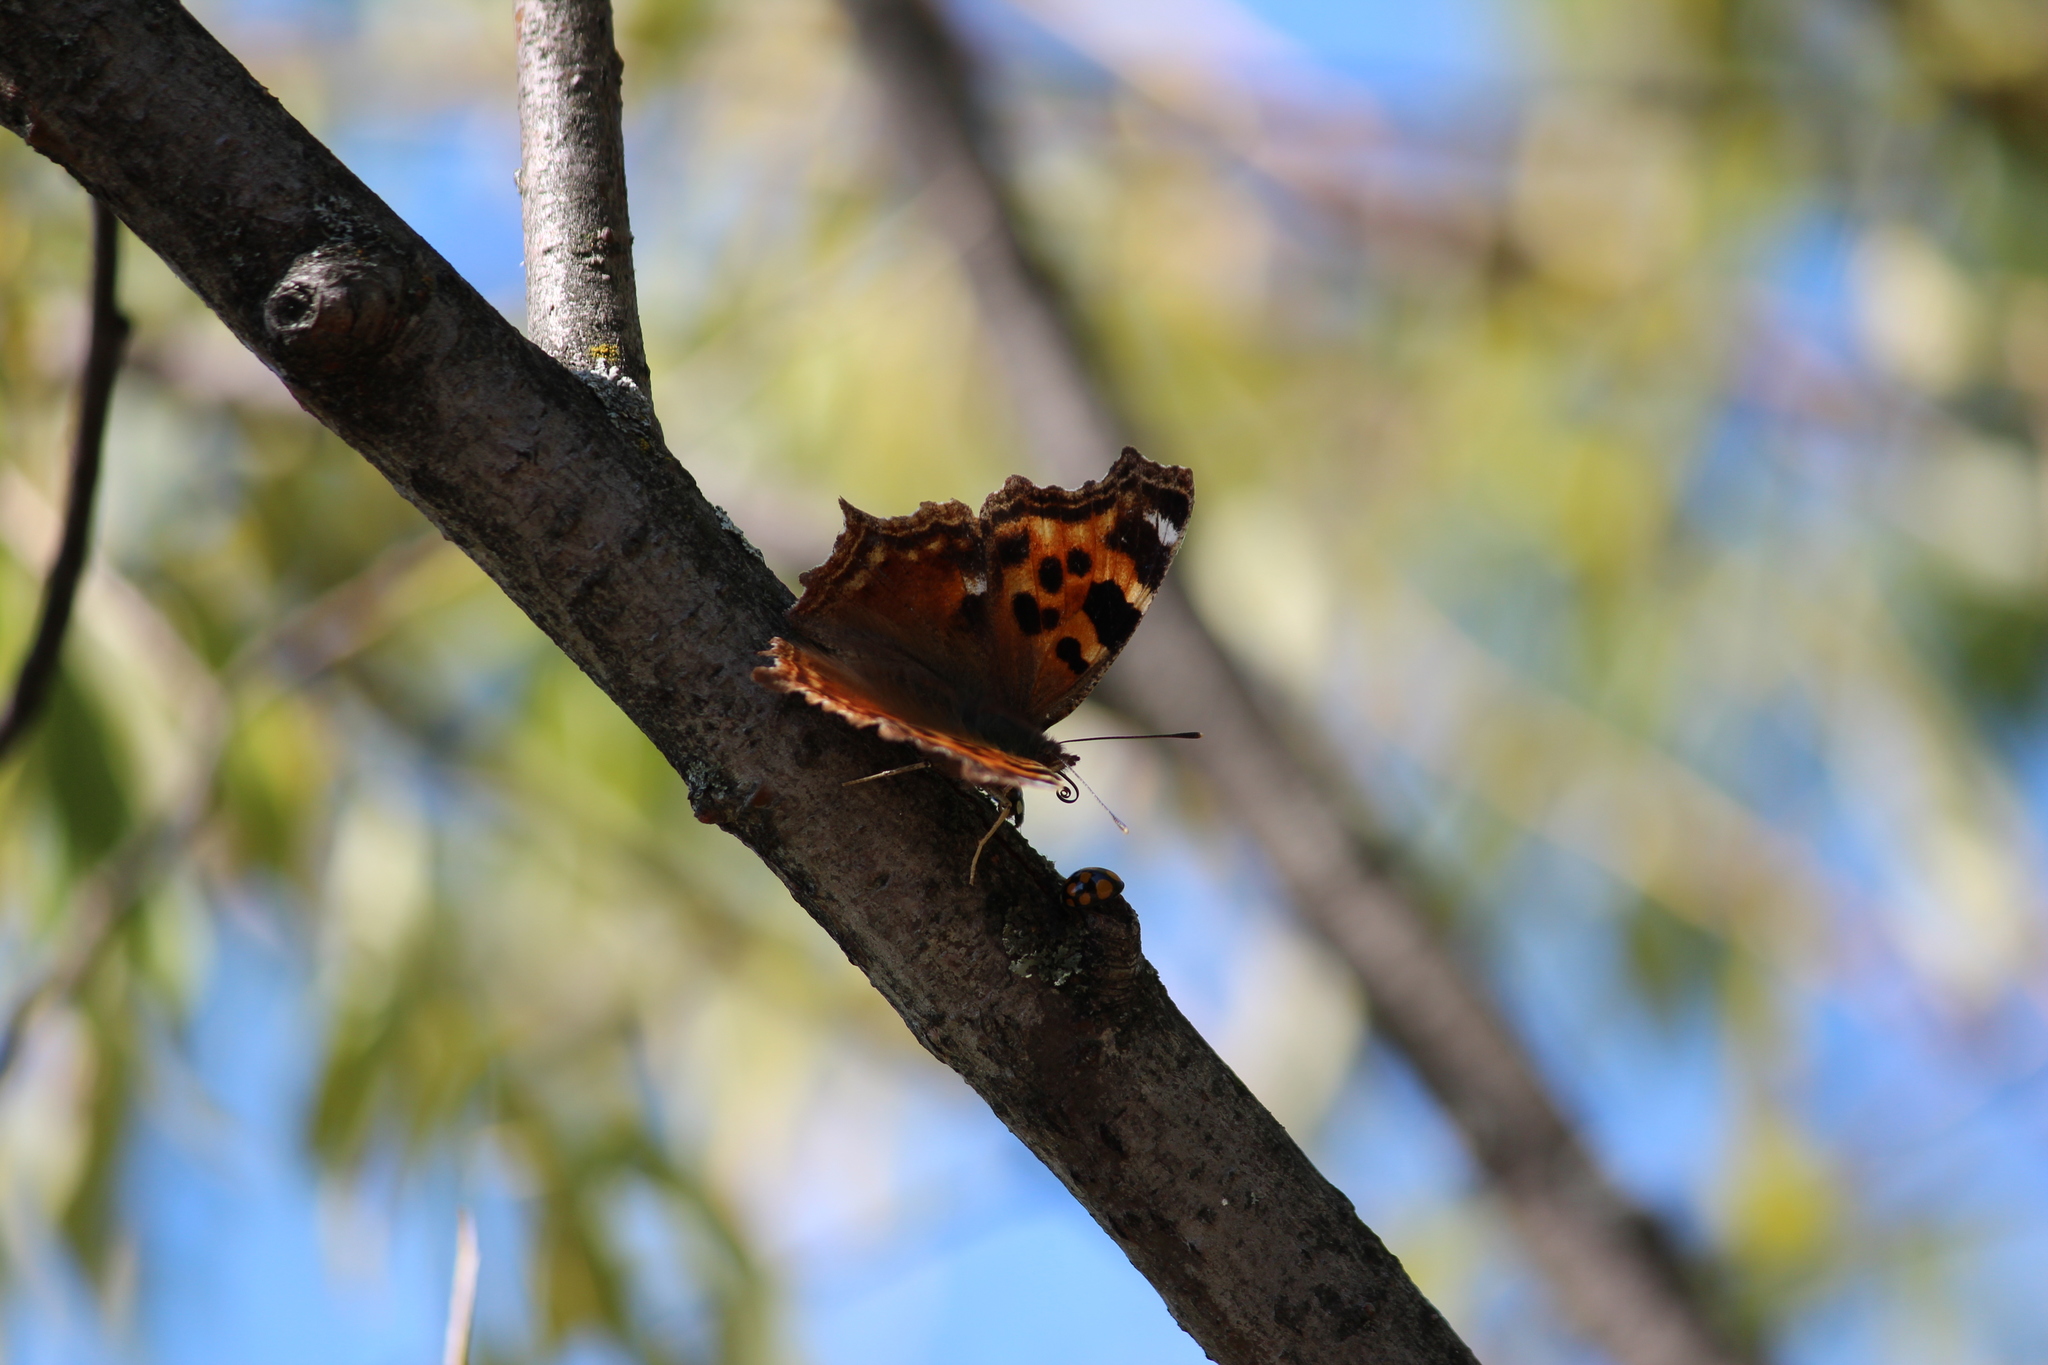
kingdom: Animalia
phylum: Arthropoda
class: Insecta
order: Lepidoptera
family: Nymphalidae
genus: Polygonia
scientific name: Polygonia vaualbum
